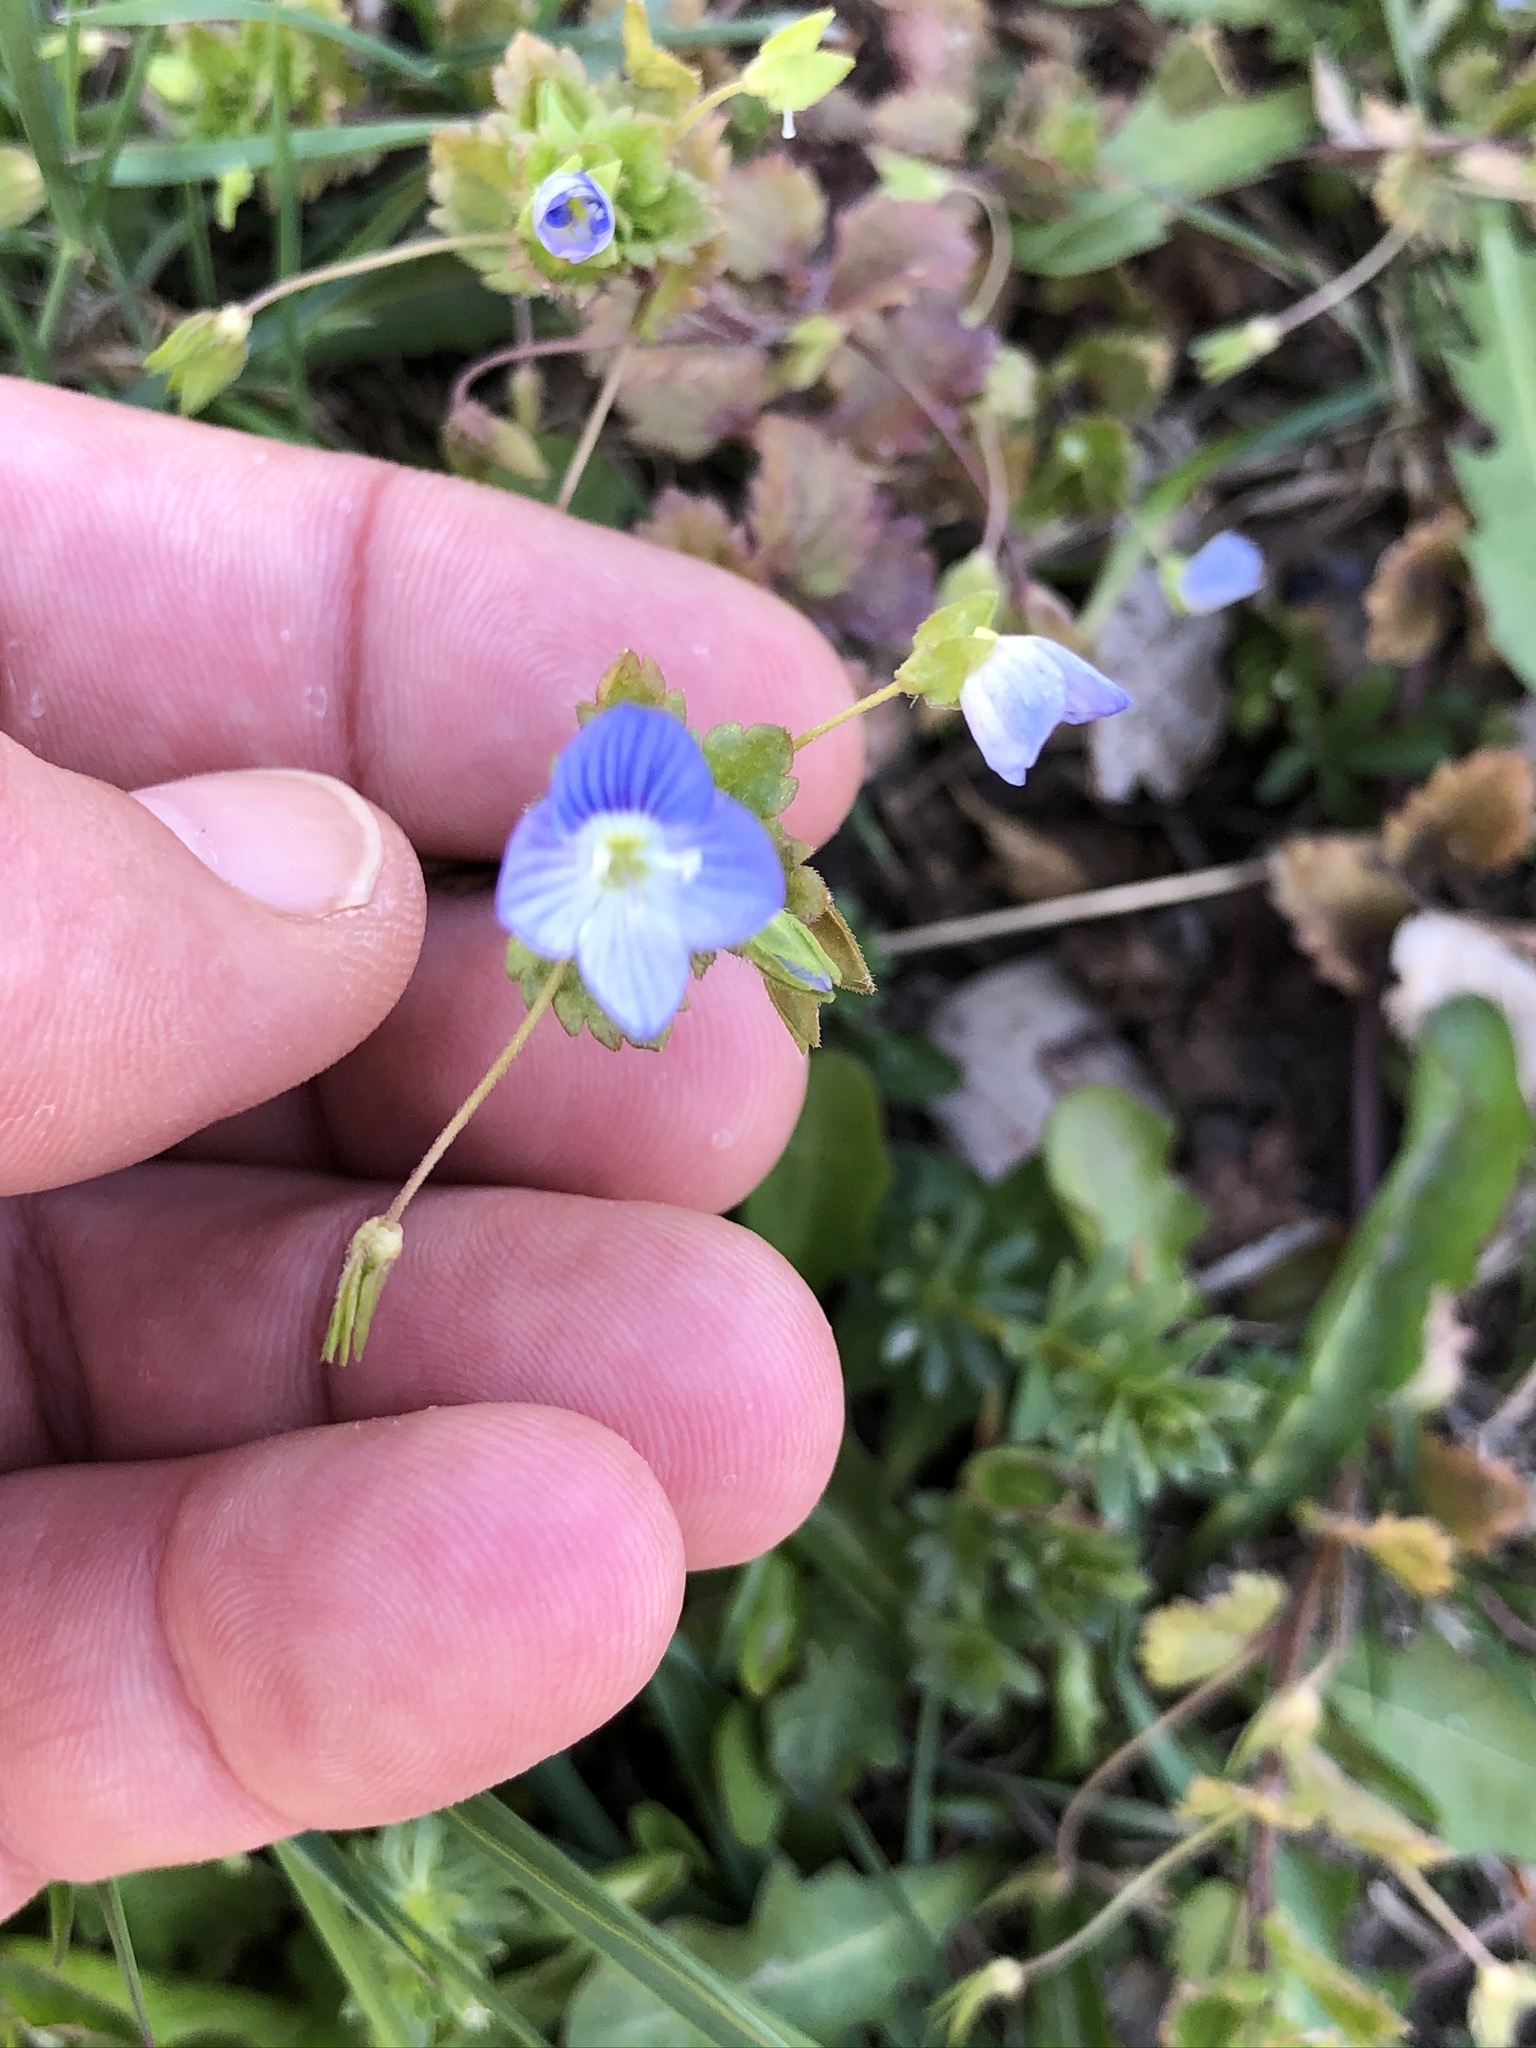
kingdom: Plantae
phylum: Tracheophyta
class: Magnoliopsida
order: Lamiales
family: Plantaginaceae
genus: Veronica
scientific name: Veronica persica
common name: Common field-speedwell
